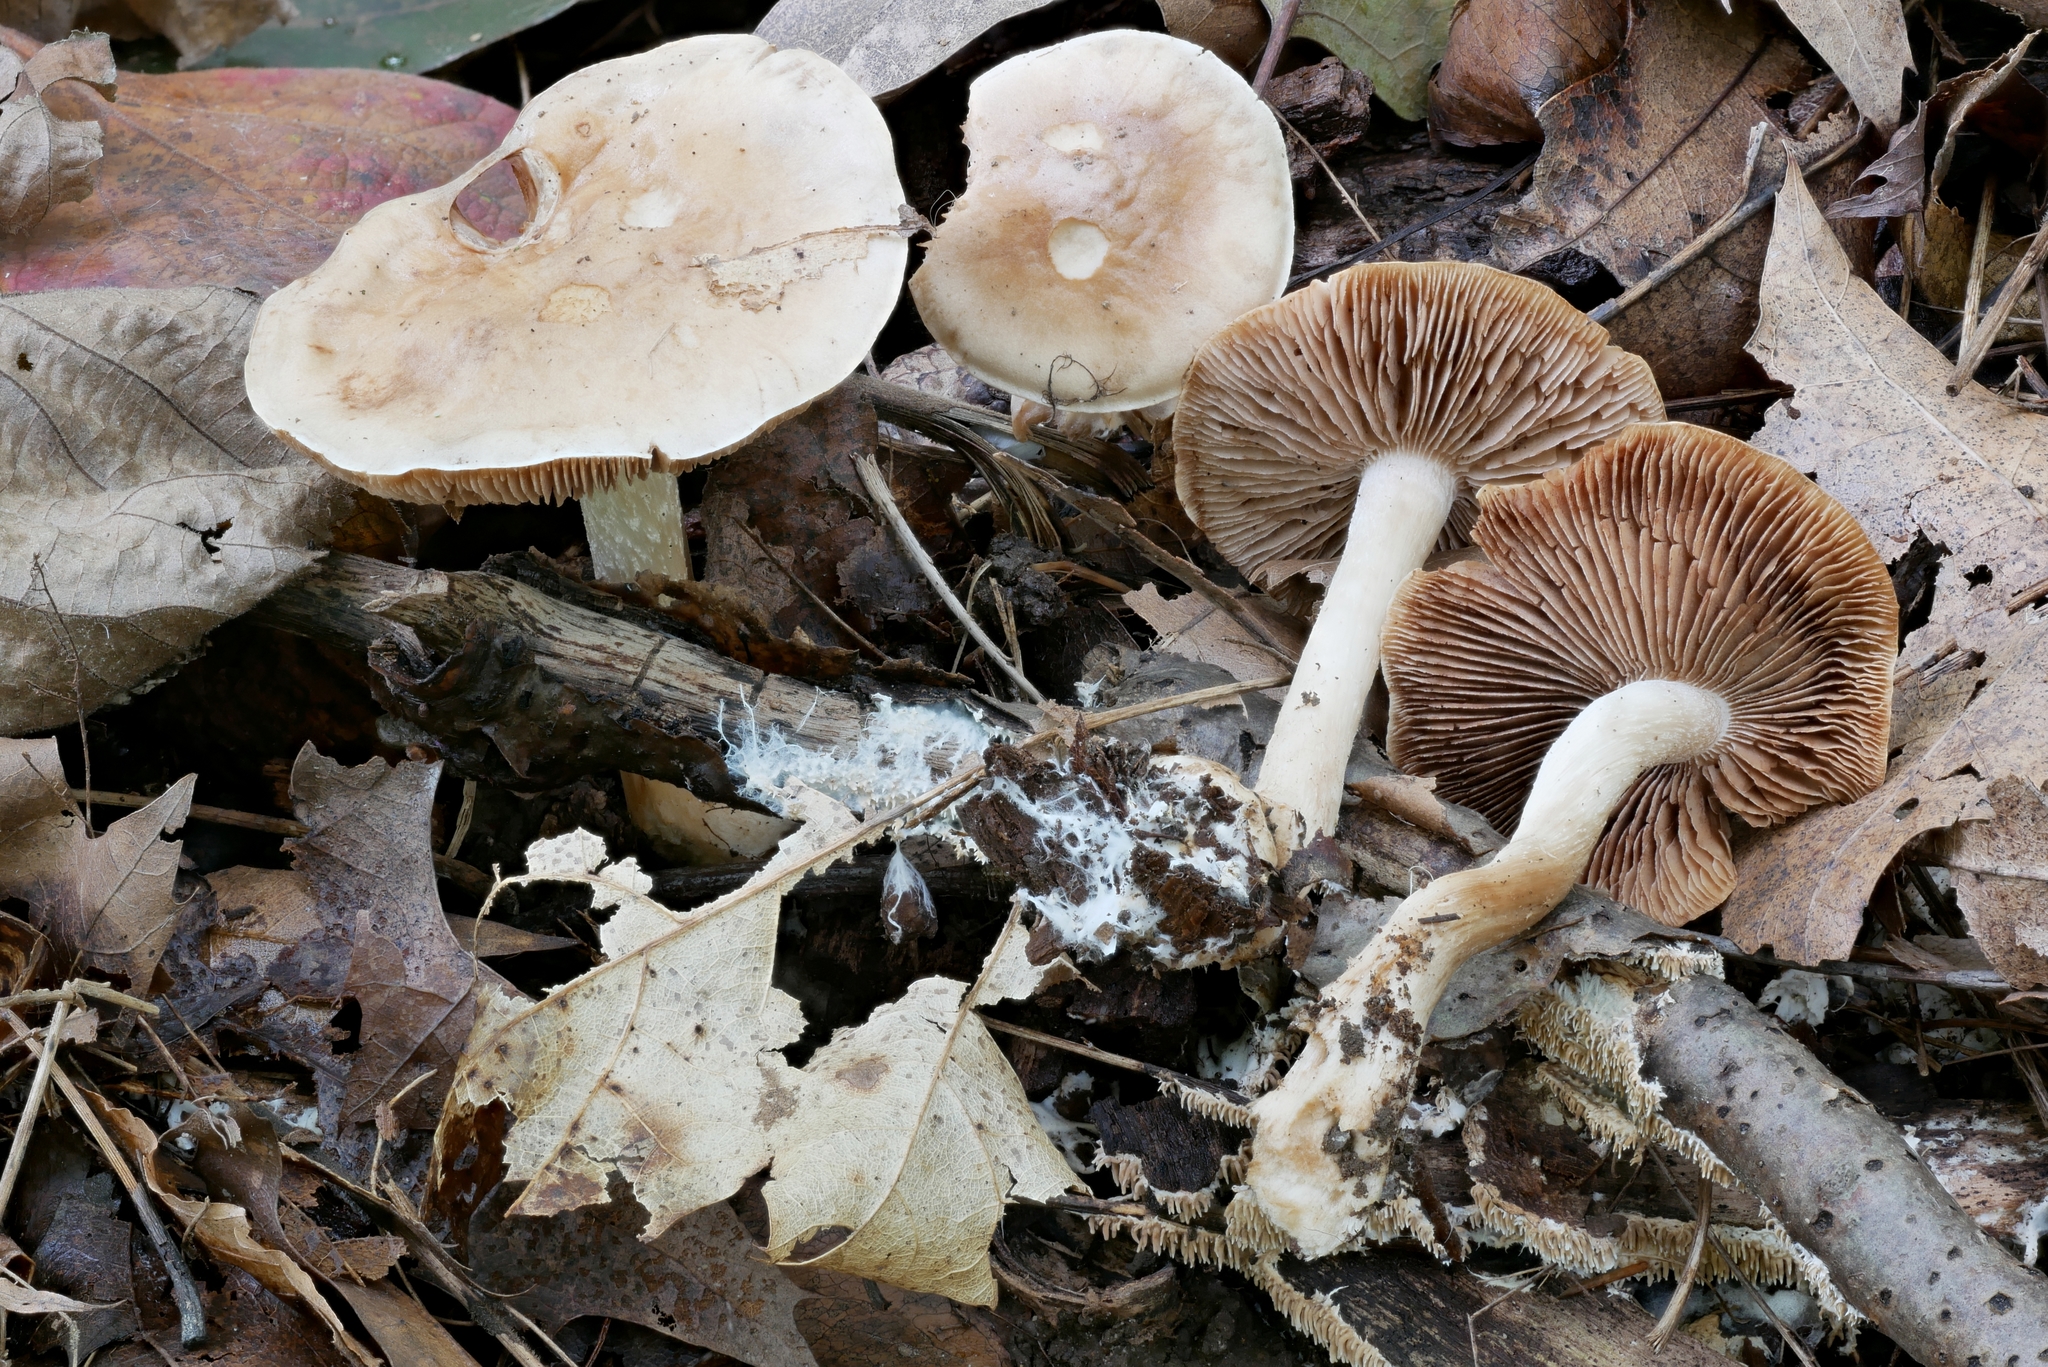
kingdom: Fungi
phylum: Basidiomycota
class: Agaricomycetes
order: Agaricales
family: Hymenogastraceae
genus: Hebeloma
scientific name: Hebeloma albidulum
